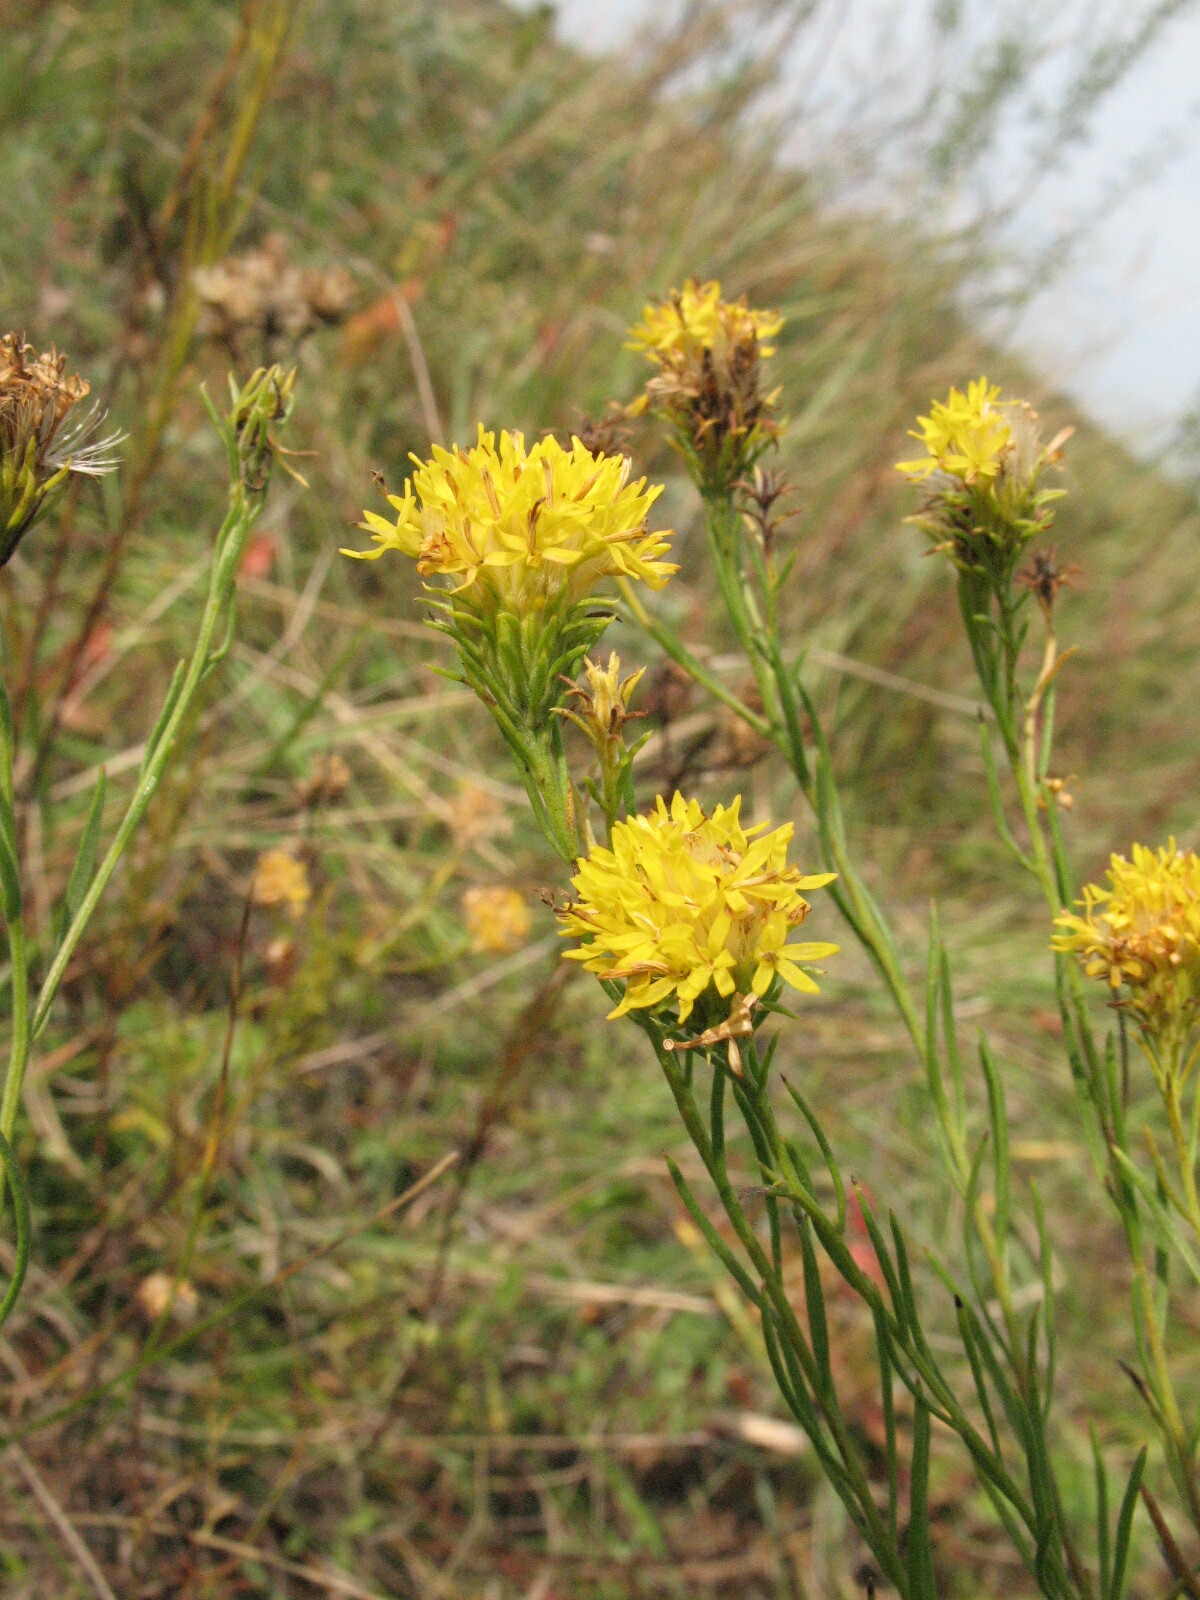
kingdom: Plantae
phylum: Tracheophyta
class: Magnoliopsida
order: Asterales
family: Asteraceae
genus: Galatella
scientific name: Galatella linosyris
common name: Goldilocks aster
